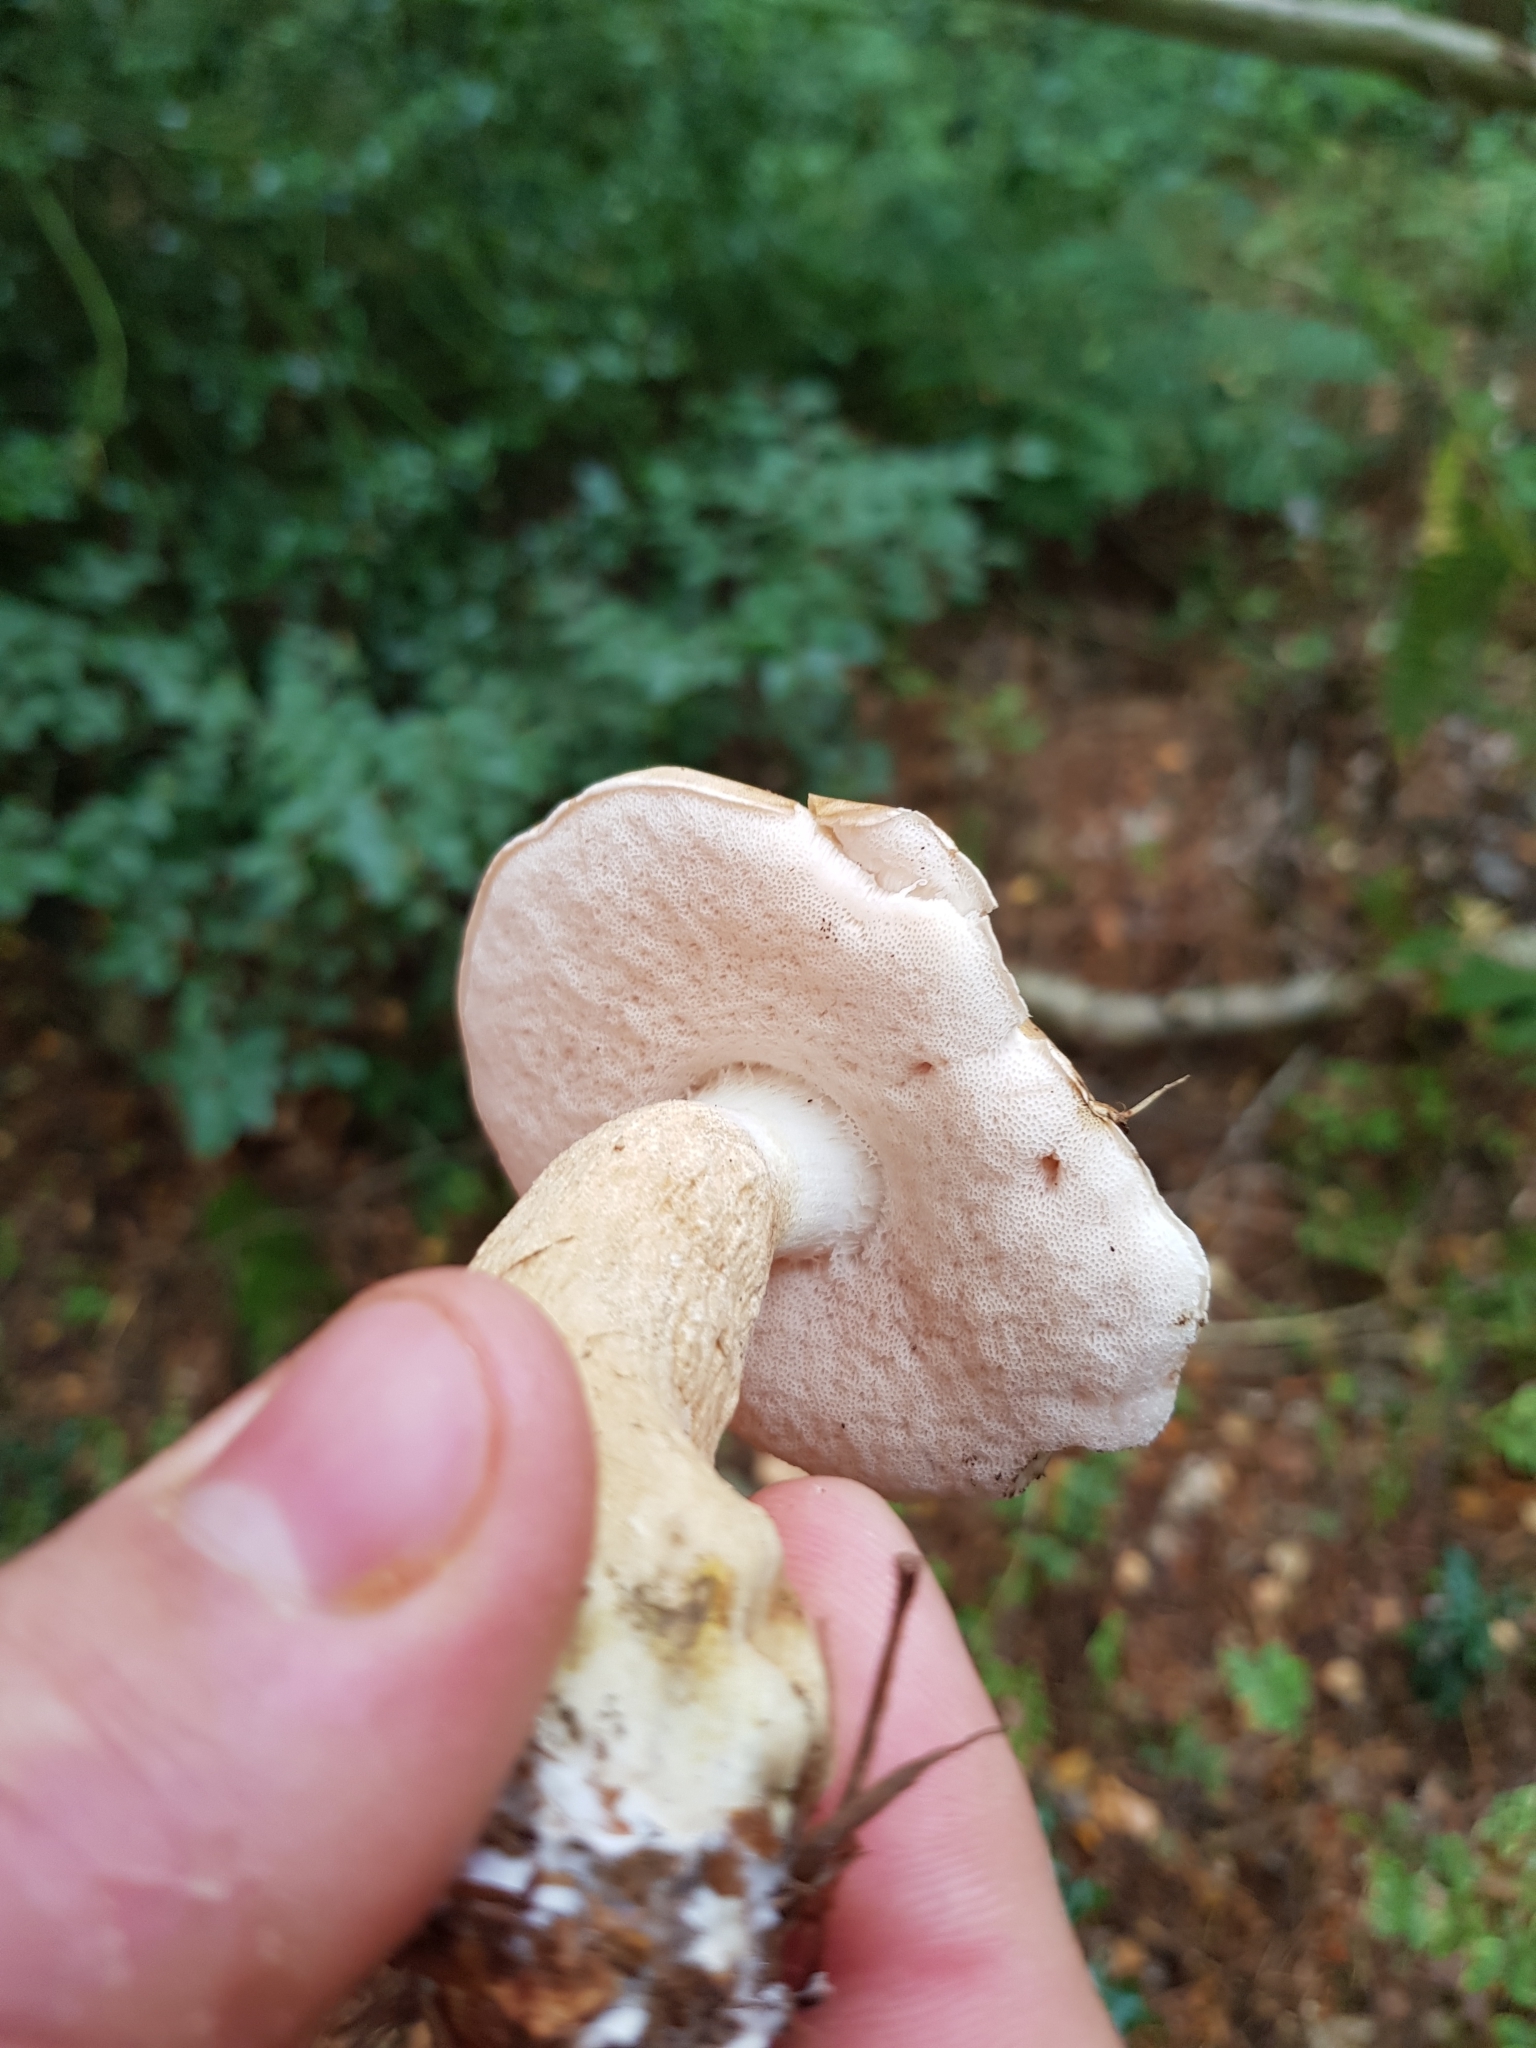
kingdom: Fungi
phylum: Basidiomycota
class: Agaricomycetes
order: Boletales
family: Boletaceae
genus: Tylopilus
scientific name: Tylopilus felleus
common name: Bitter bolete
